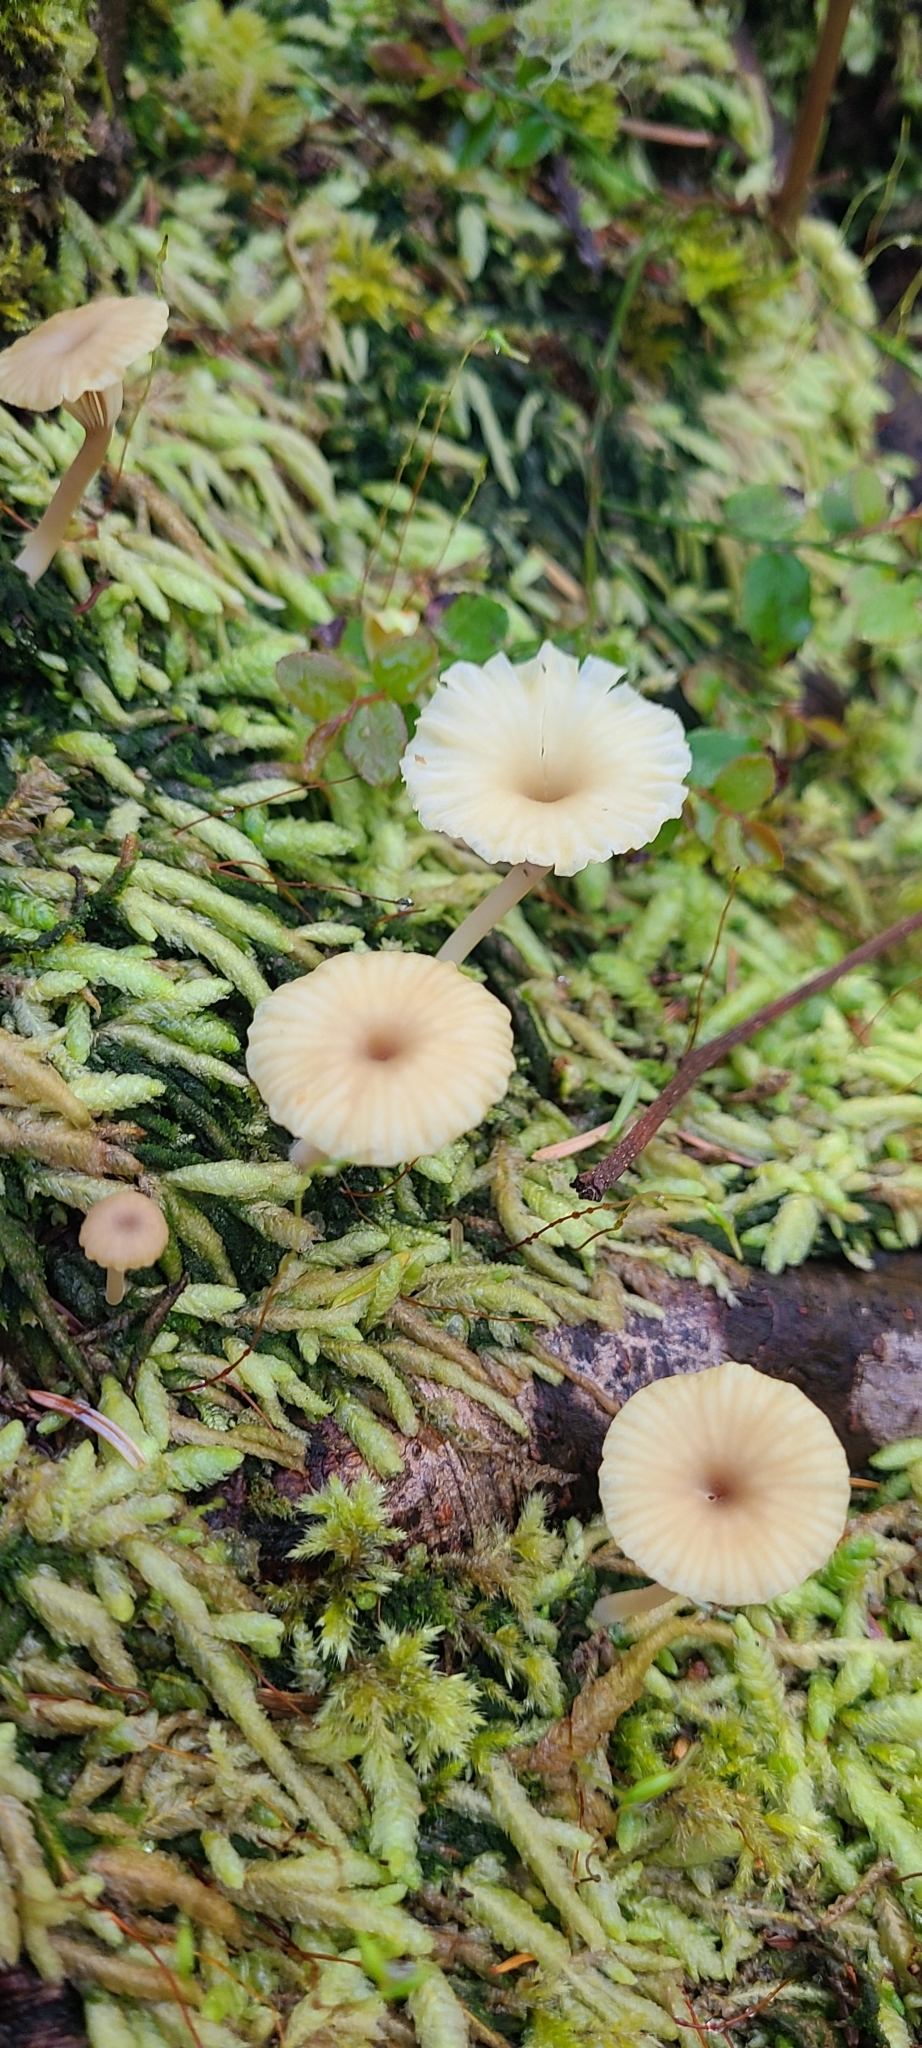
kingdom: Fungi
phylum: Basidiomycota
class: Agaricomycetes
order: Agaricales
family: Hygrophoraceae
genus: Lichenomphalia
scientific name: Lichenomphalia
